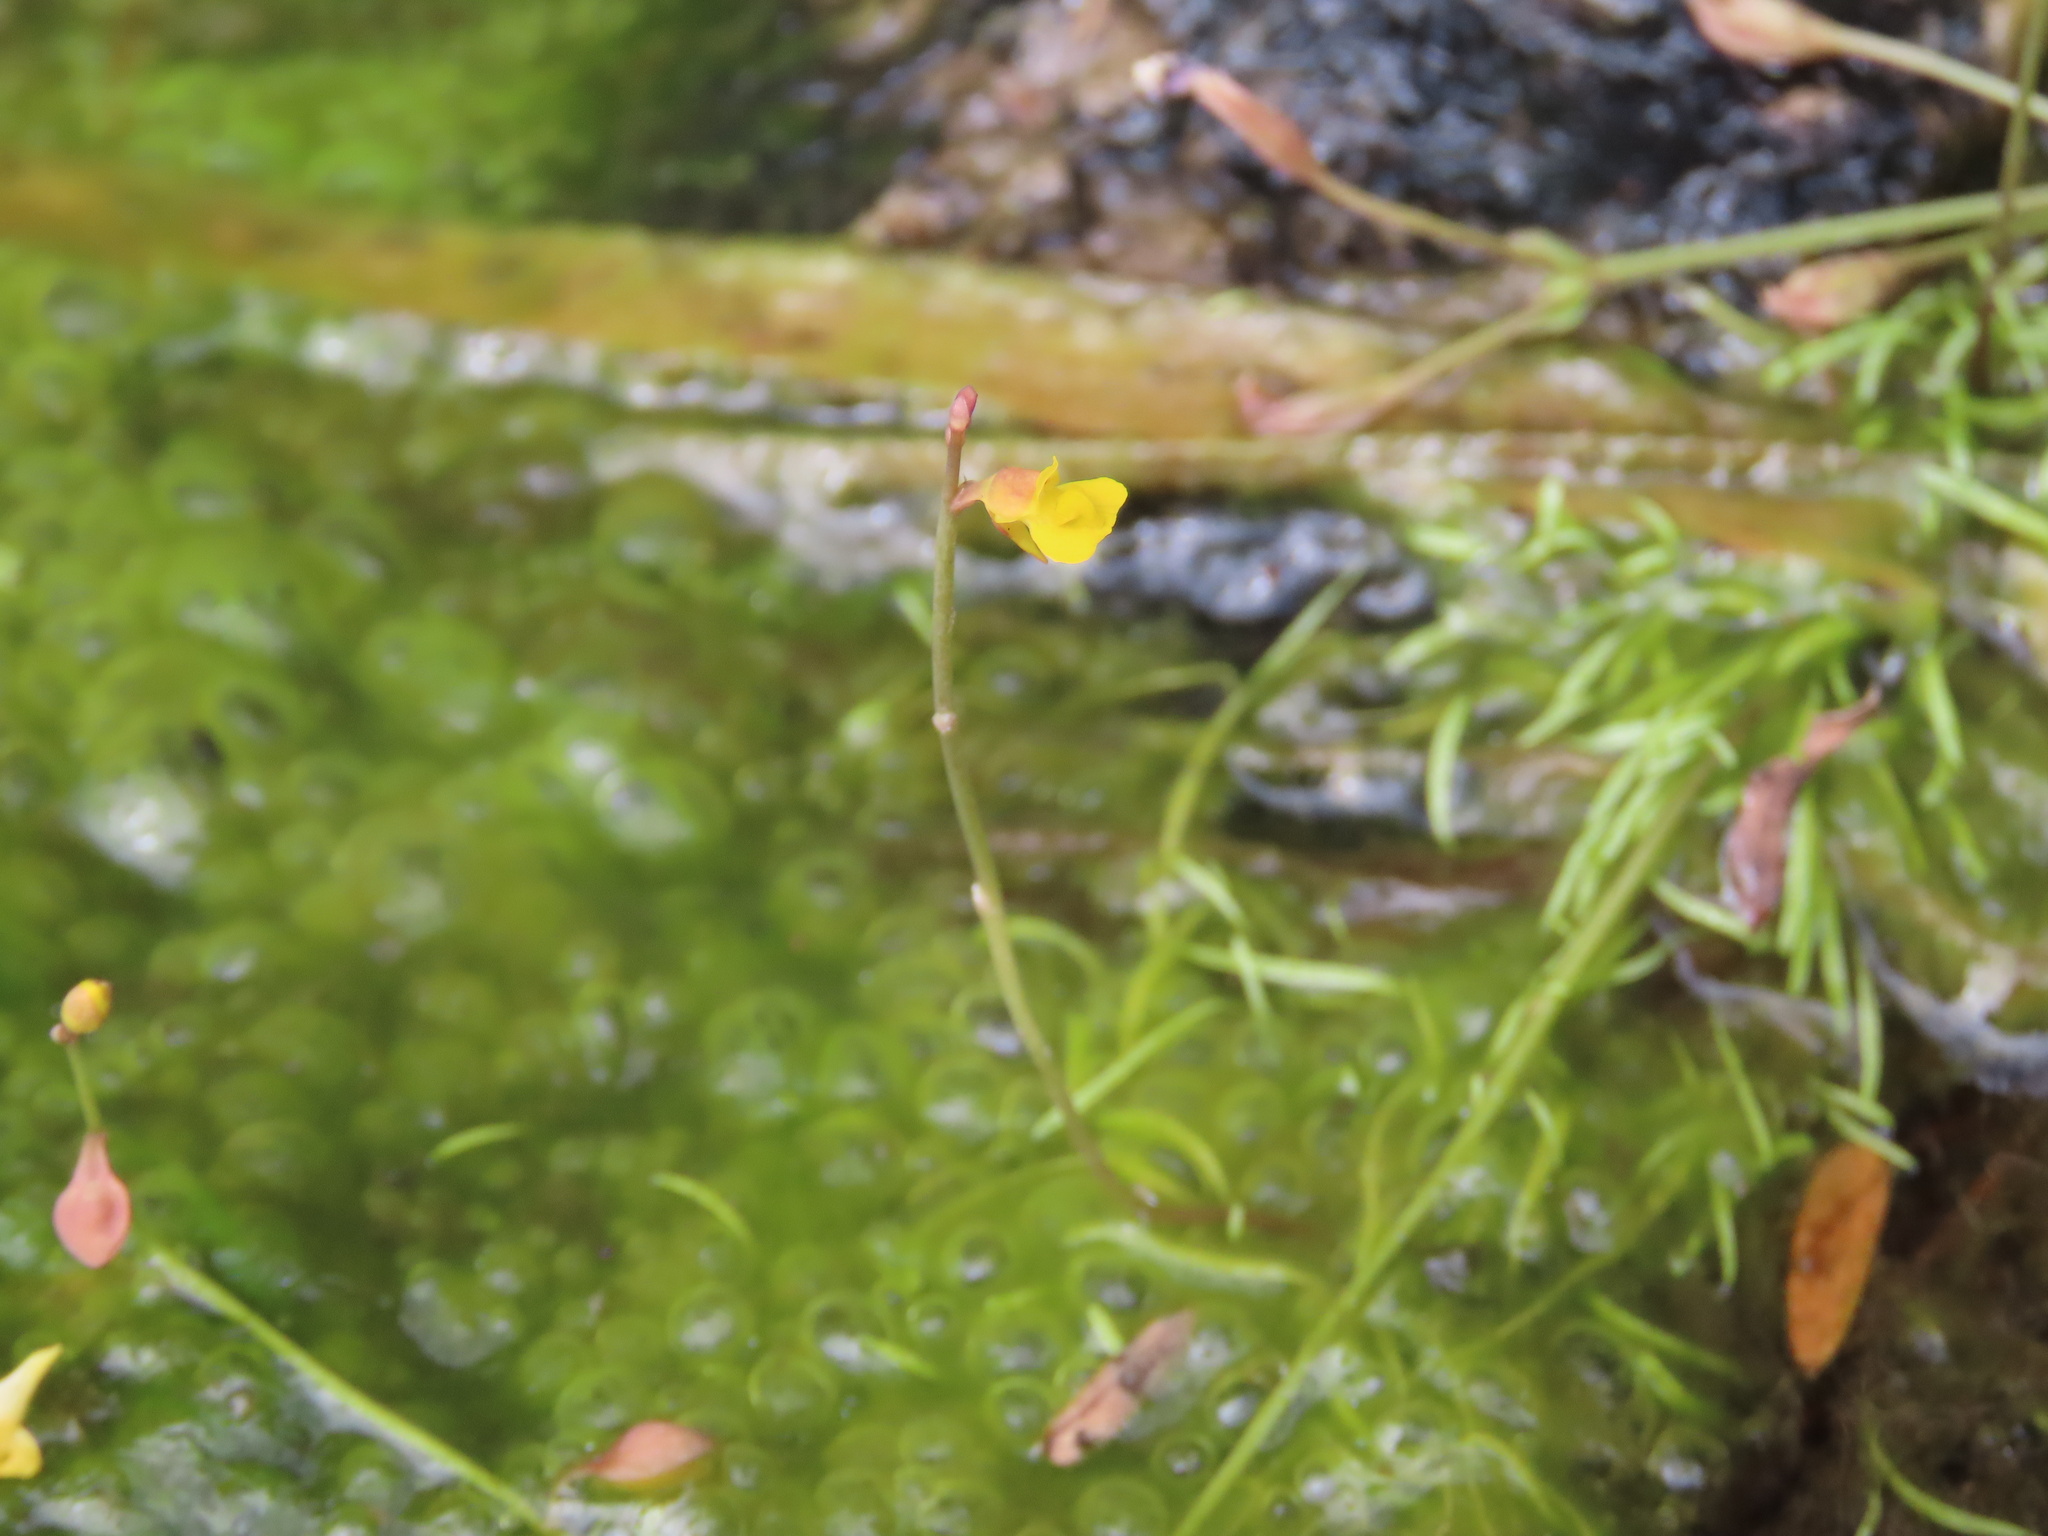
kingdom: Plantae
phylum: Tracheophyta
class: Magnoliopsida
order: Lamiales
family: Lentibulariaceae
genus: Utricularia
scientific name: Utricularia bifida
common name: Bifid bladderwort
